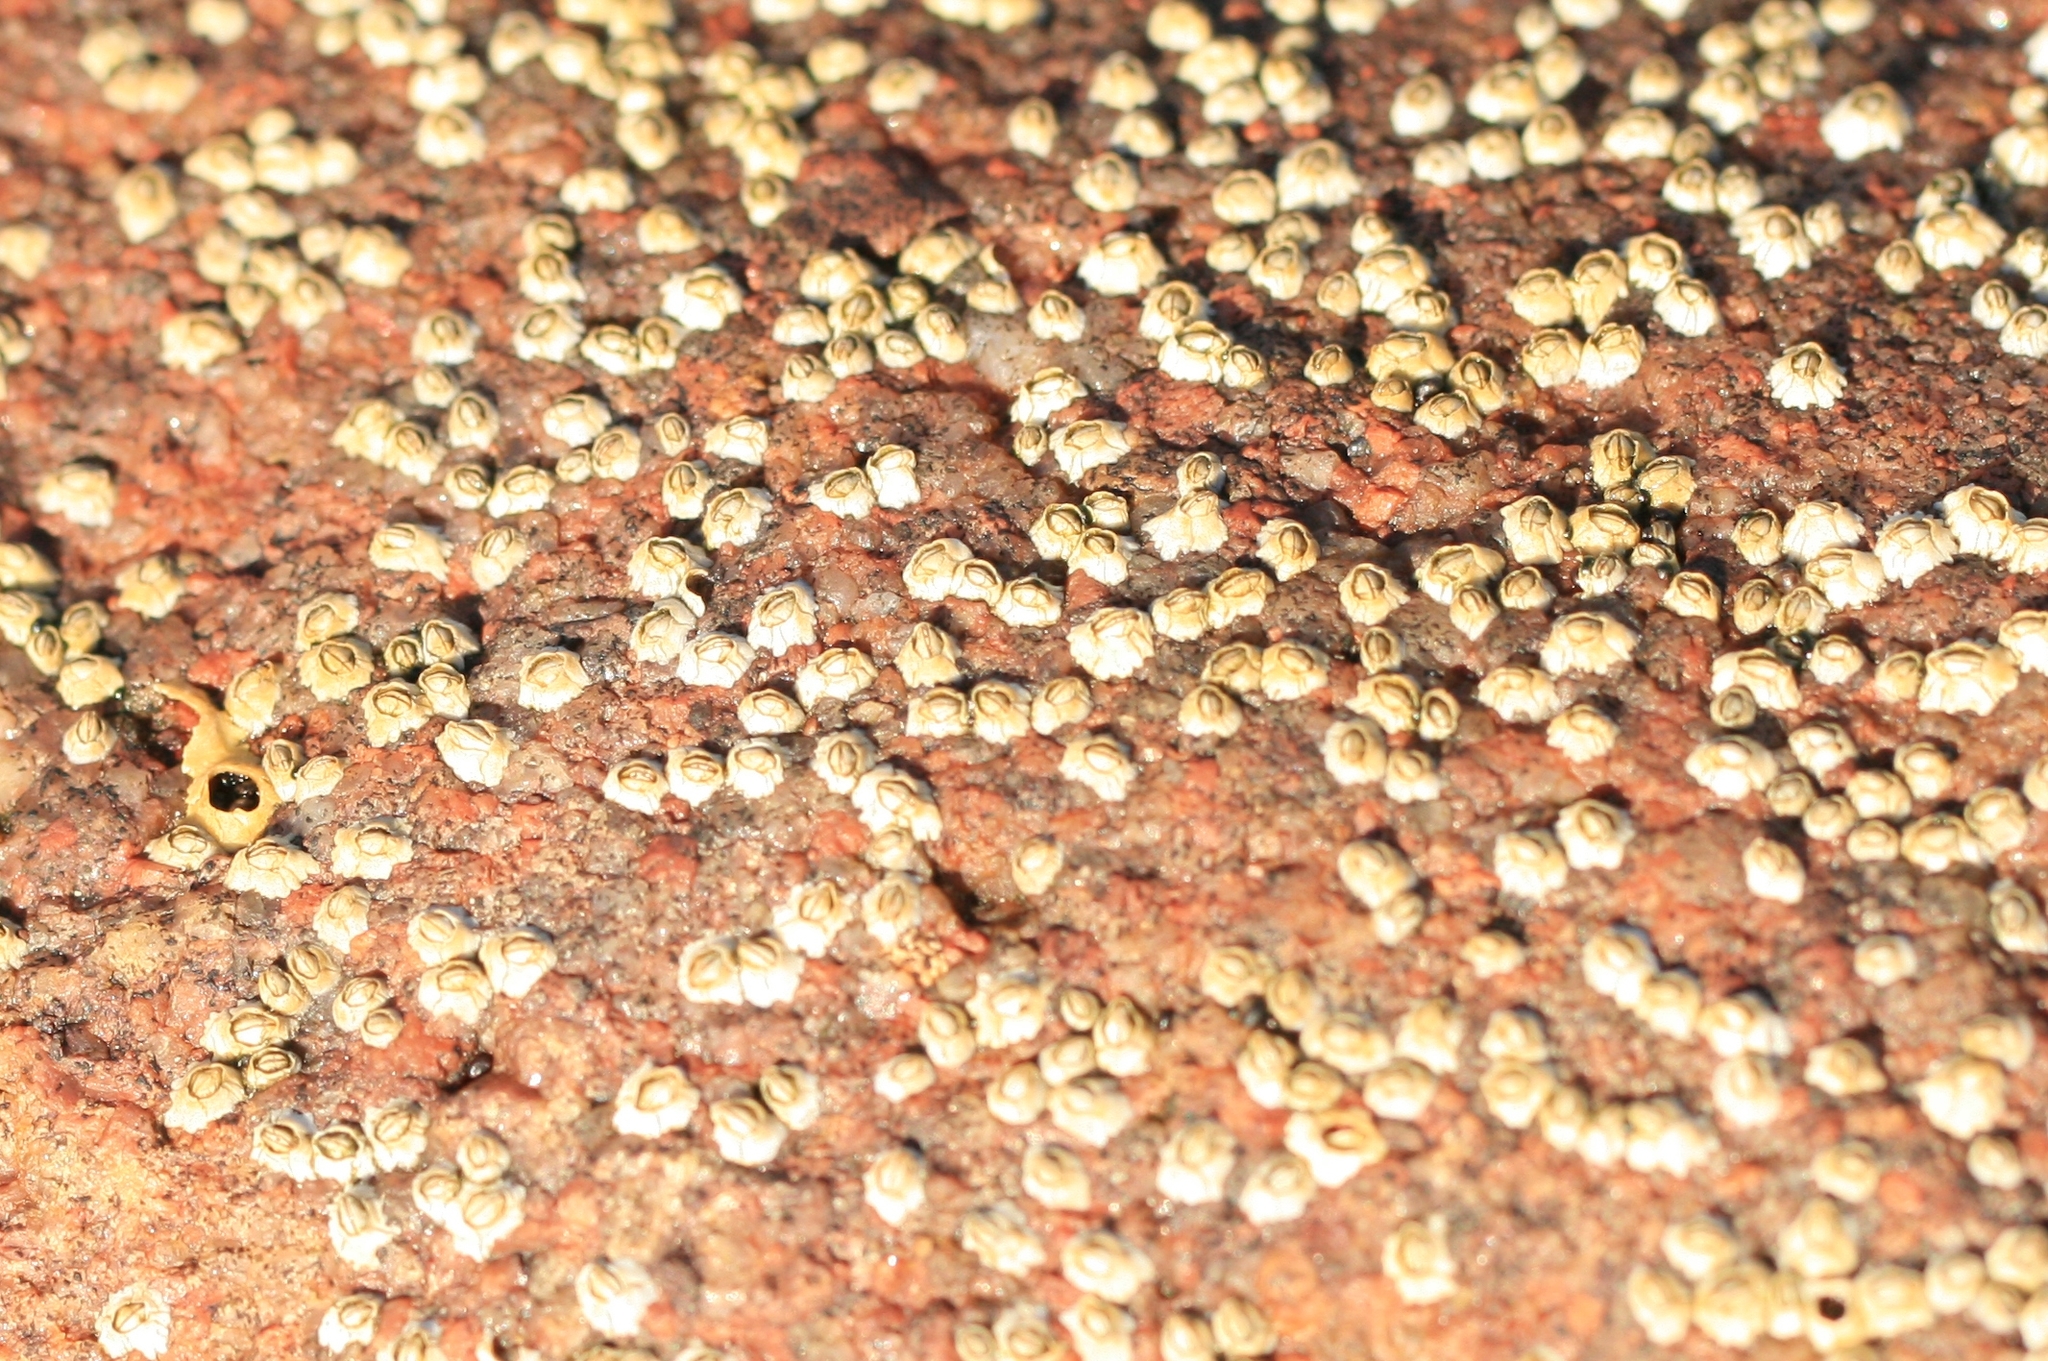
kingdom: Animalia
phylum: Arthropoda
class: Maxillopoda
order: Sessilia
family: Archaeobalanidae
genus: Semibalanus
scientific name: Semibalanus balanoides
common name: Acorn barnacle
